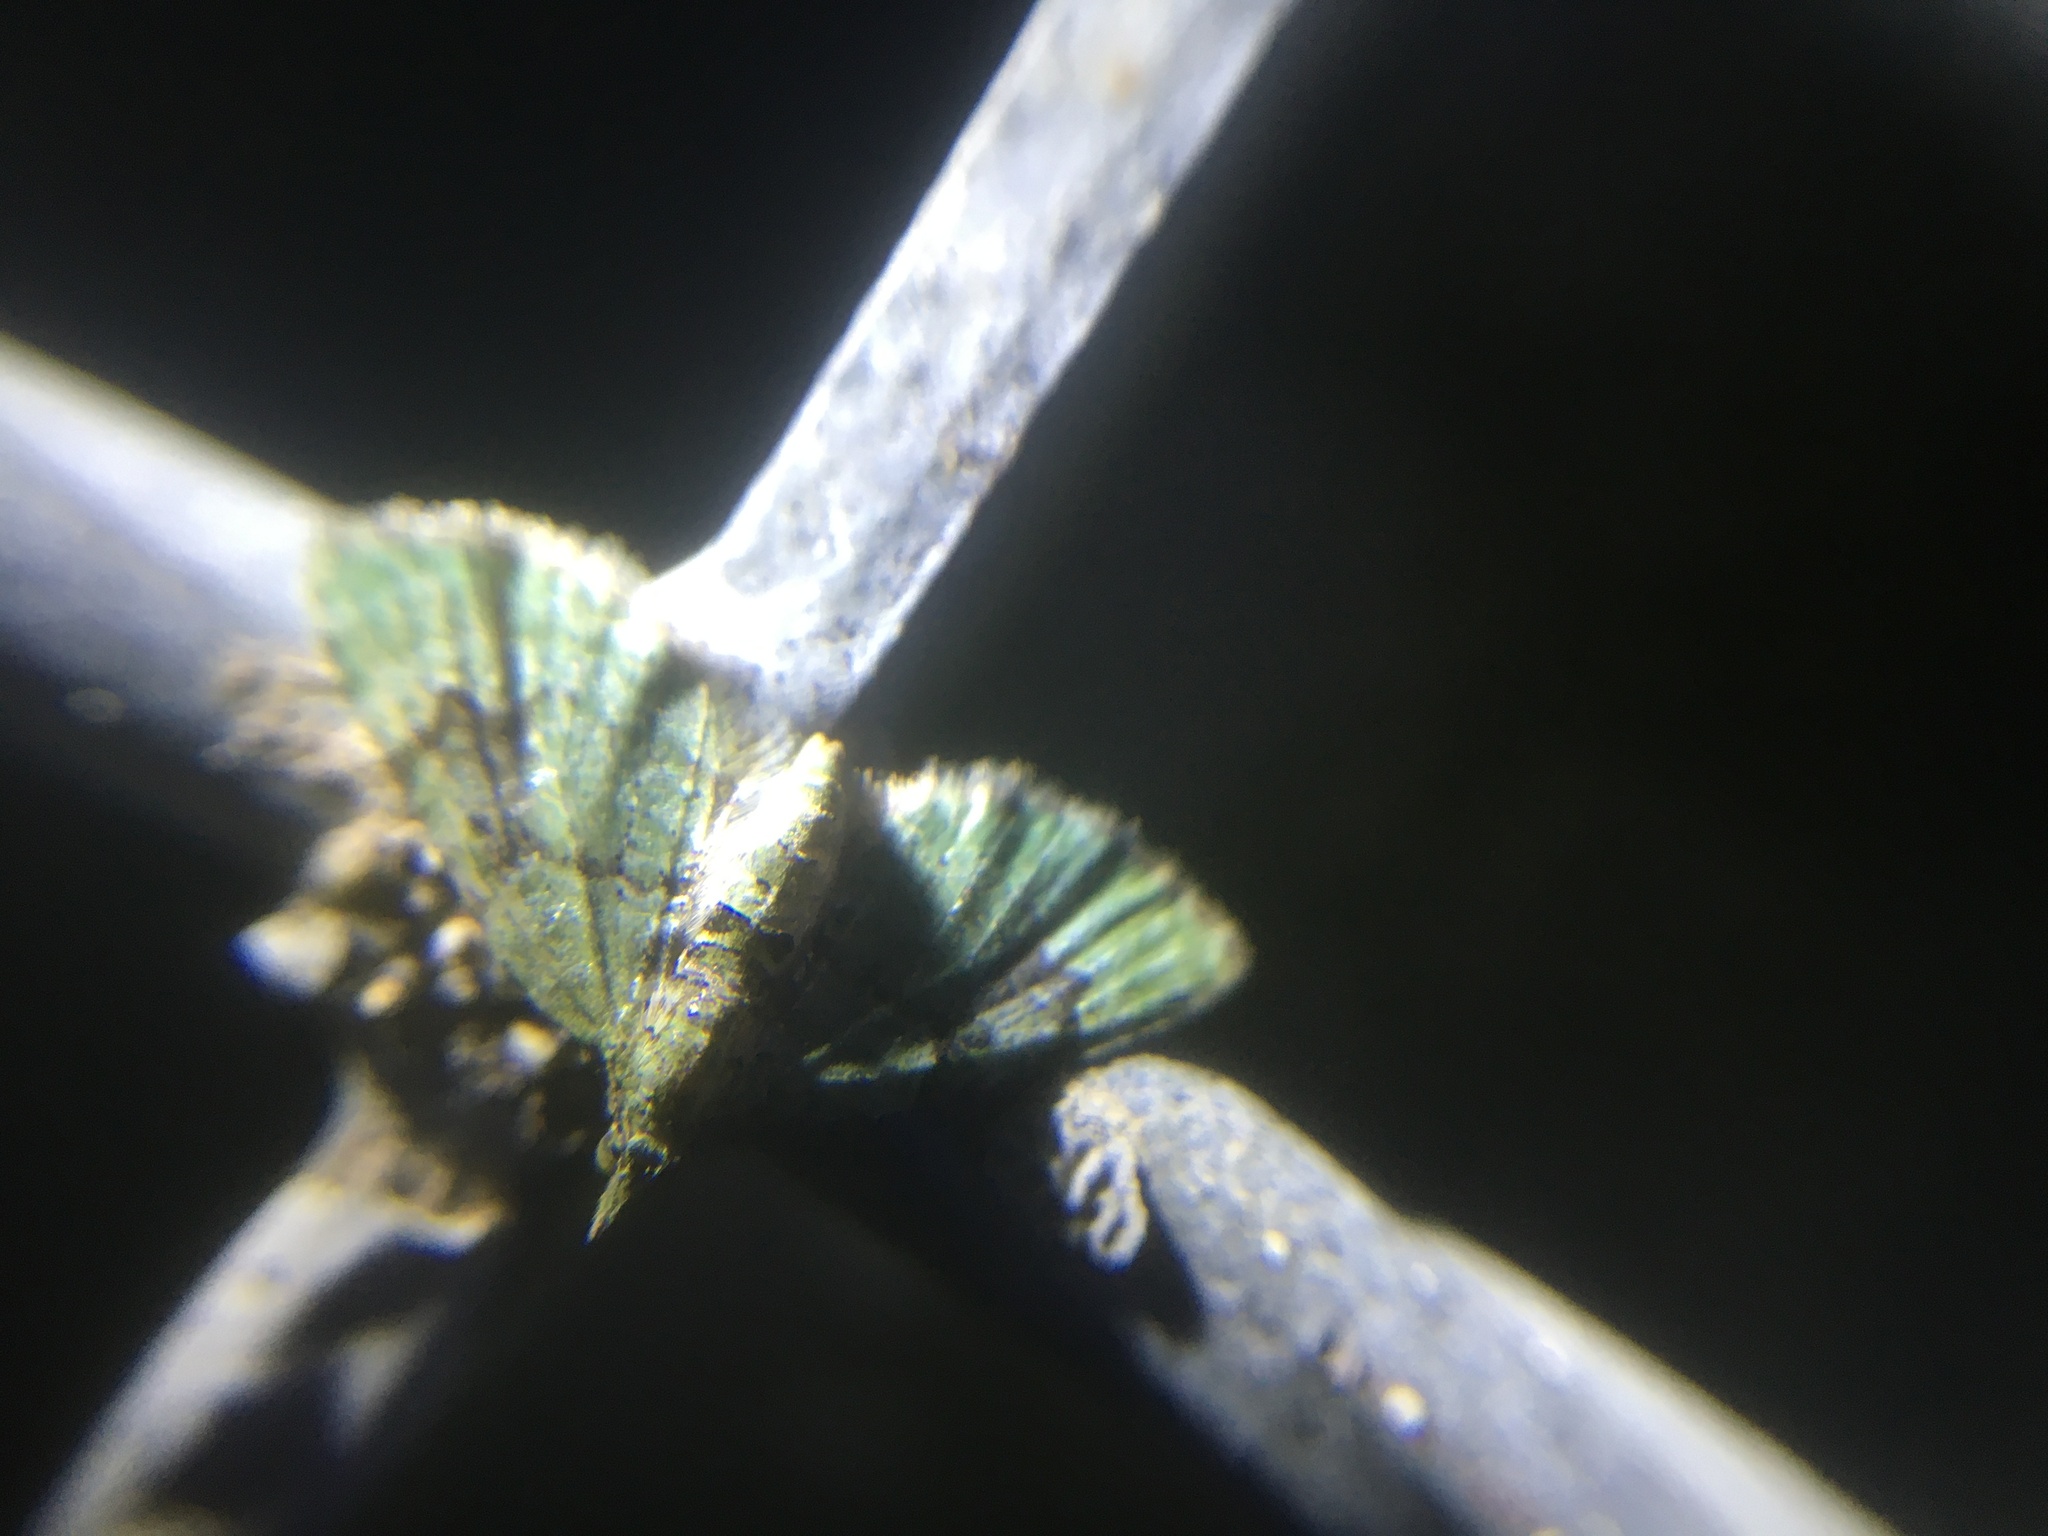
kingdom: Animalia
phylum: Arthropoda
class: Insecta
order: Lepidoptera
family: Geometridae
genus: Chloroclystis
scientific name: Chloroclystis v-ata
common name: V-pug
